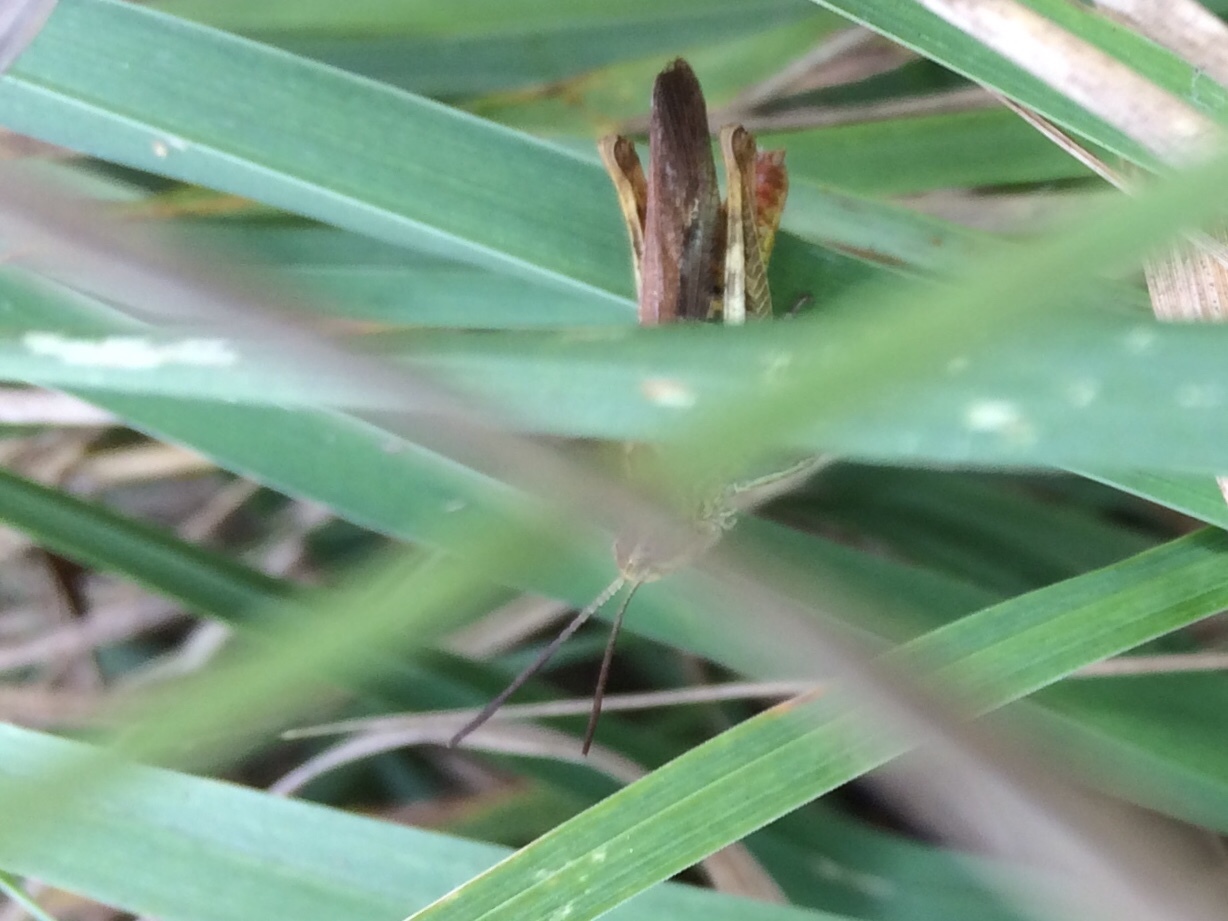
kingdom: Animalia
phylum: Arthropoda
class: Insecta
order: Orthoptera
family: Acrididae
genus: Chorthippus
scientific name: Chorthippus brunneus
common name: Field grasshopper
